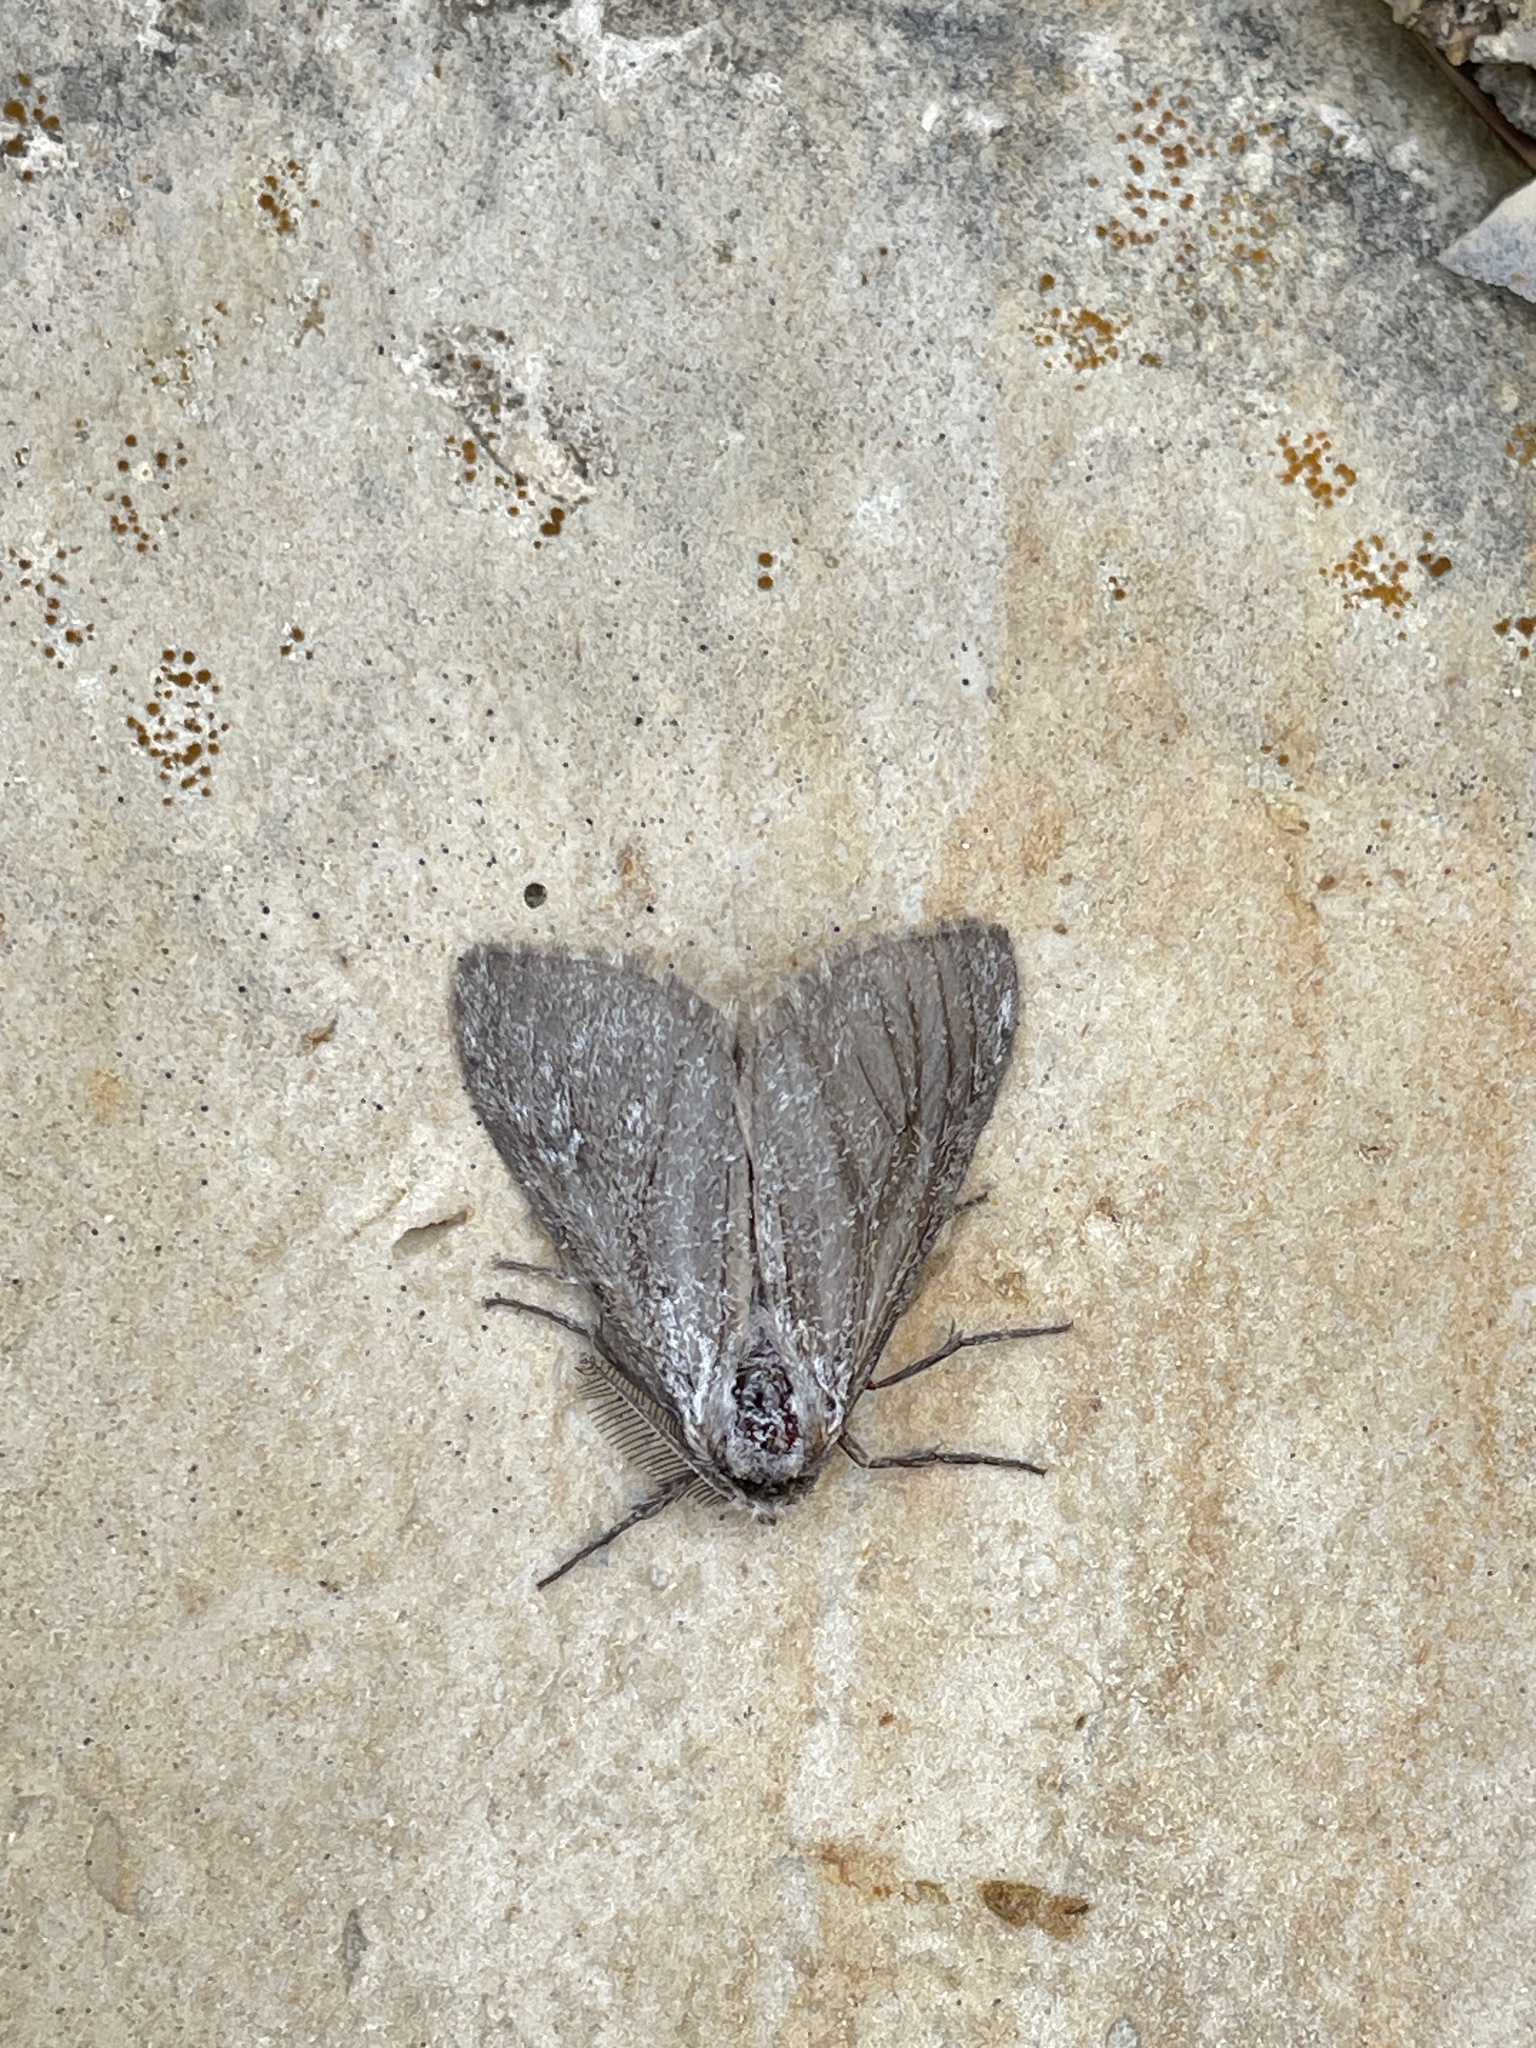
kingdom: Animalia
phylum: Arthropoda
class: Insecta
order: Lepidoptera
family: Erebidae
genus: Ocneria
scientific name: Ocneria
